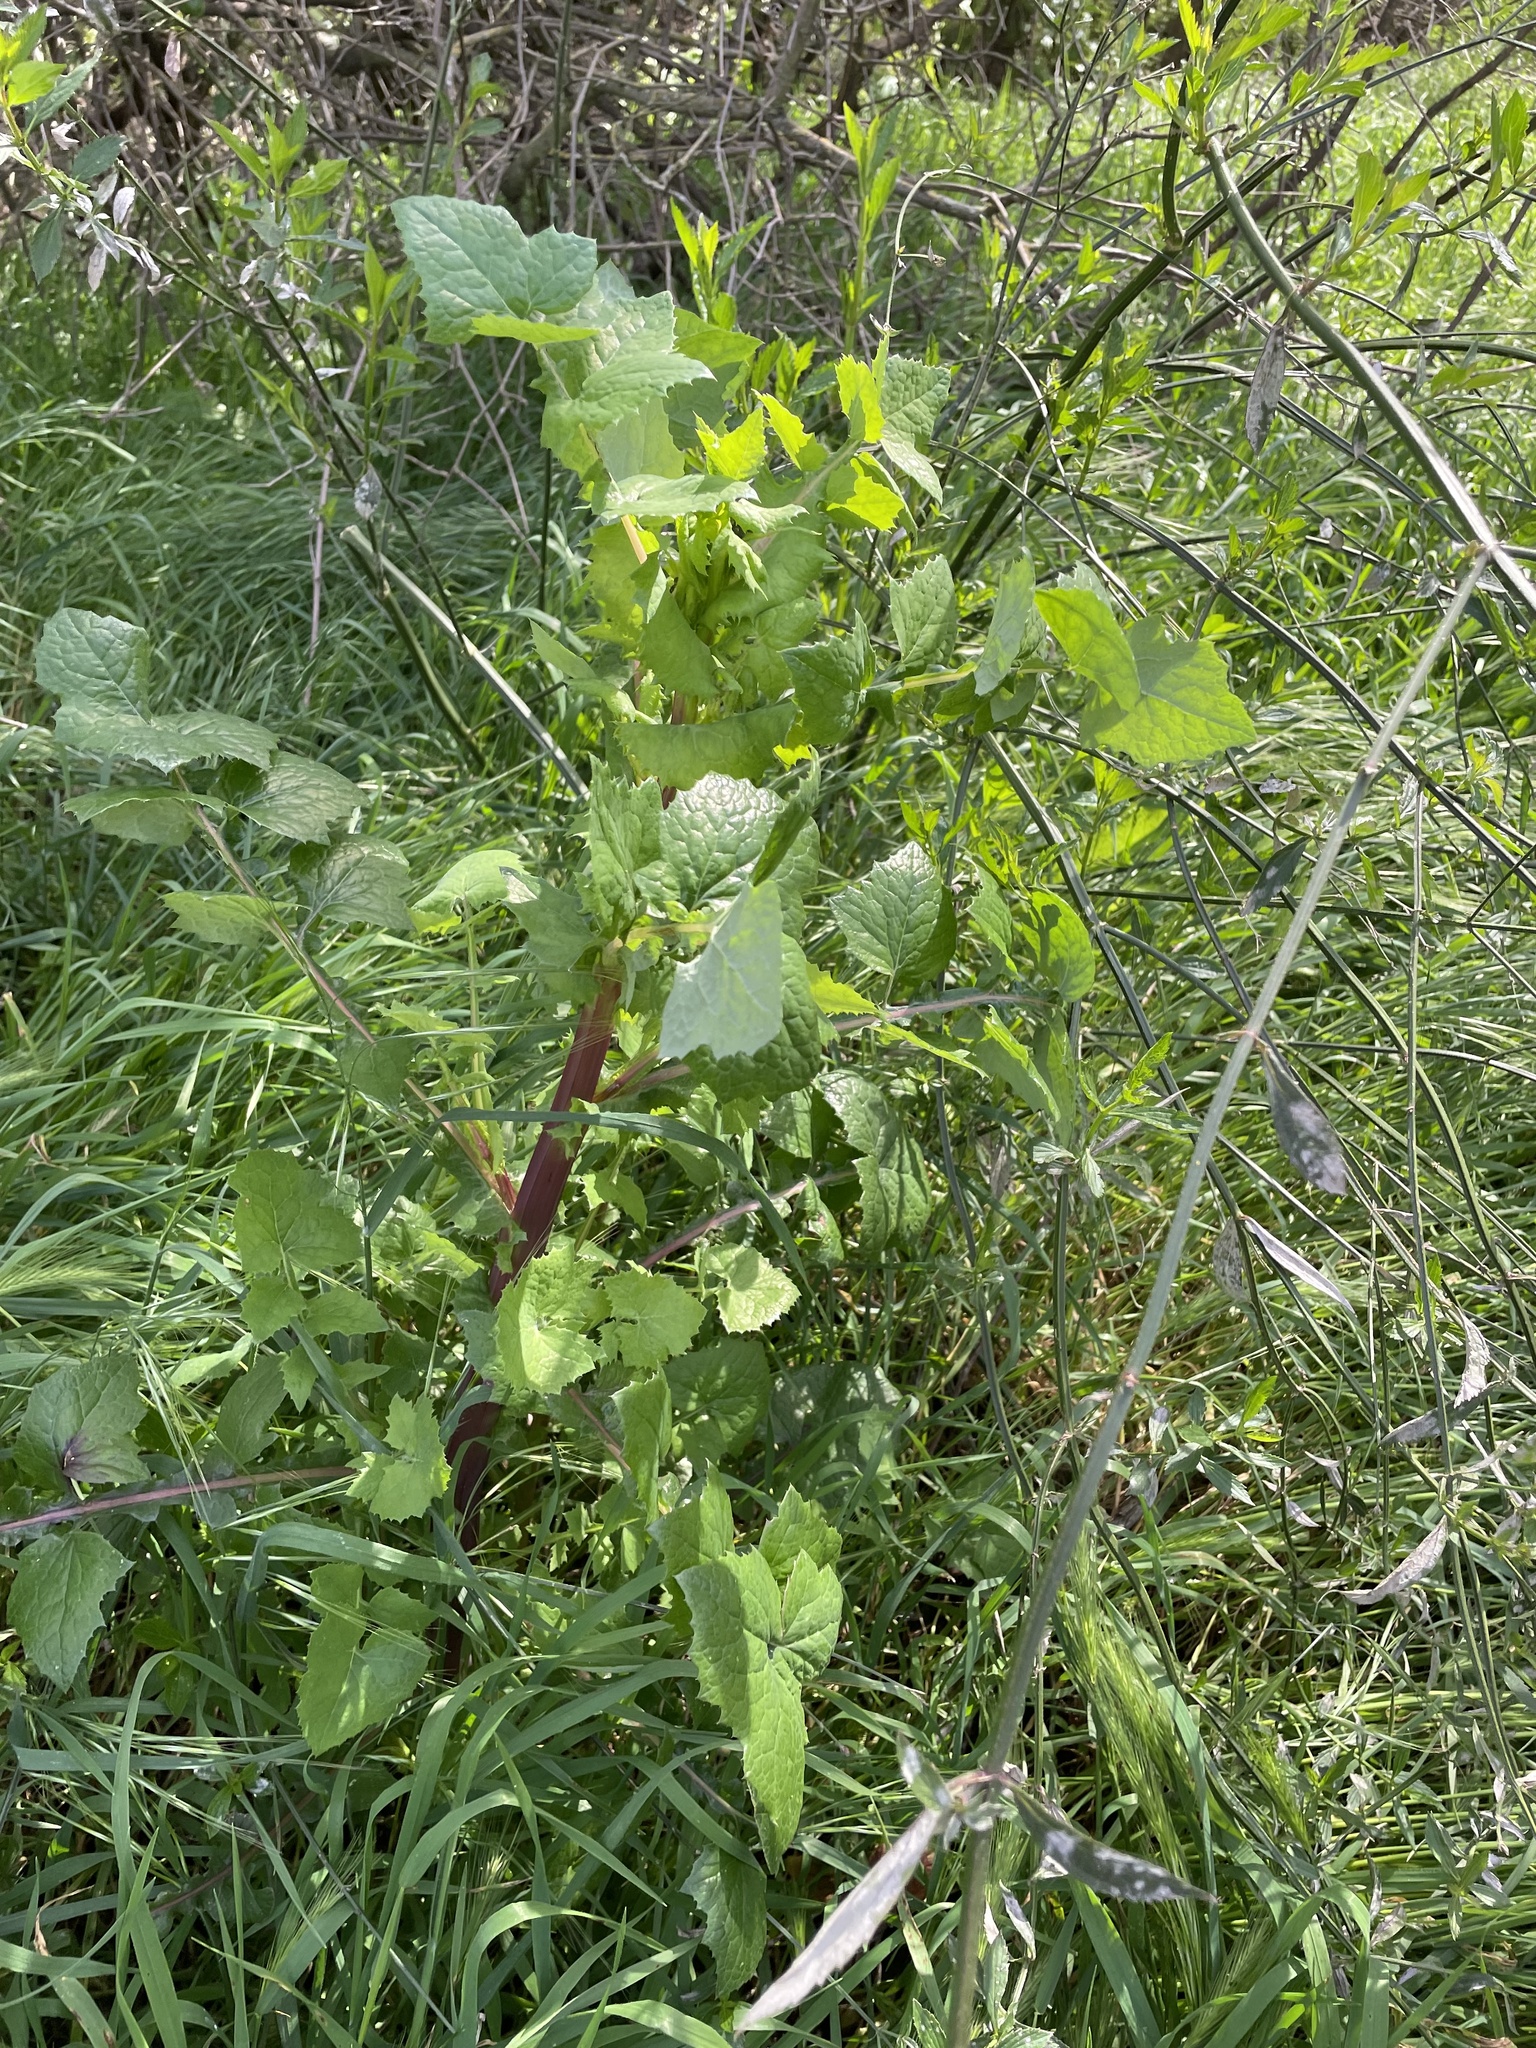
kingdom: Plantae
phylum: Tracheophyta
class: Magnoliopsida
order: Asterales
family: Asteraceae
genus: Sonchus
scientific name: Sonchus oleraceus
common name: Common sowthistle
